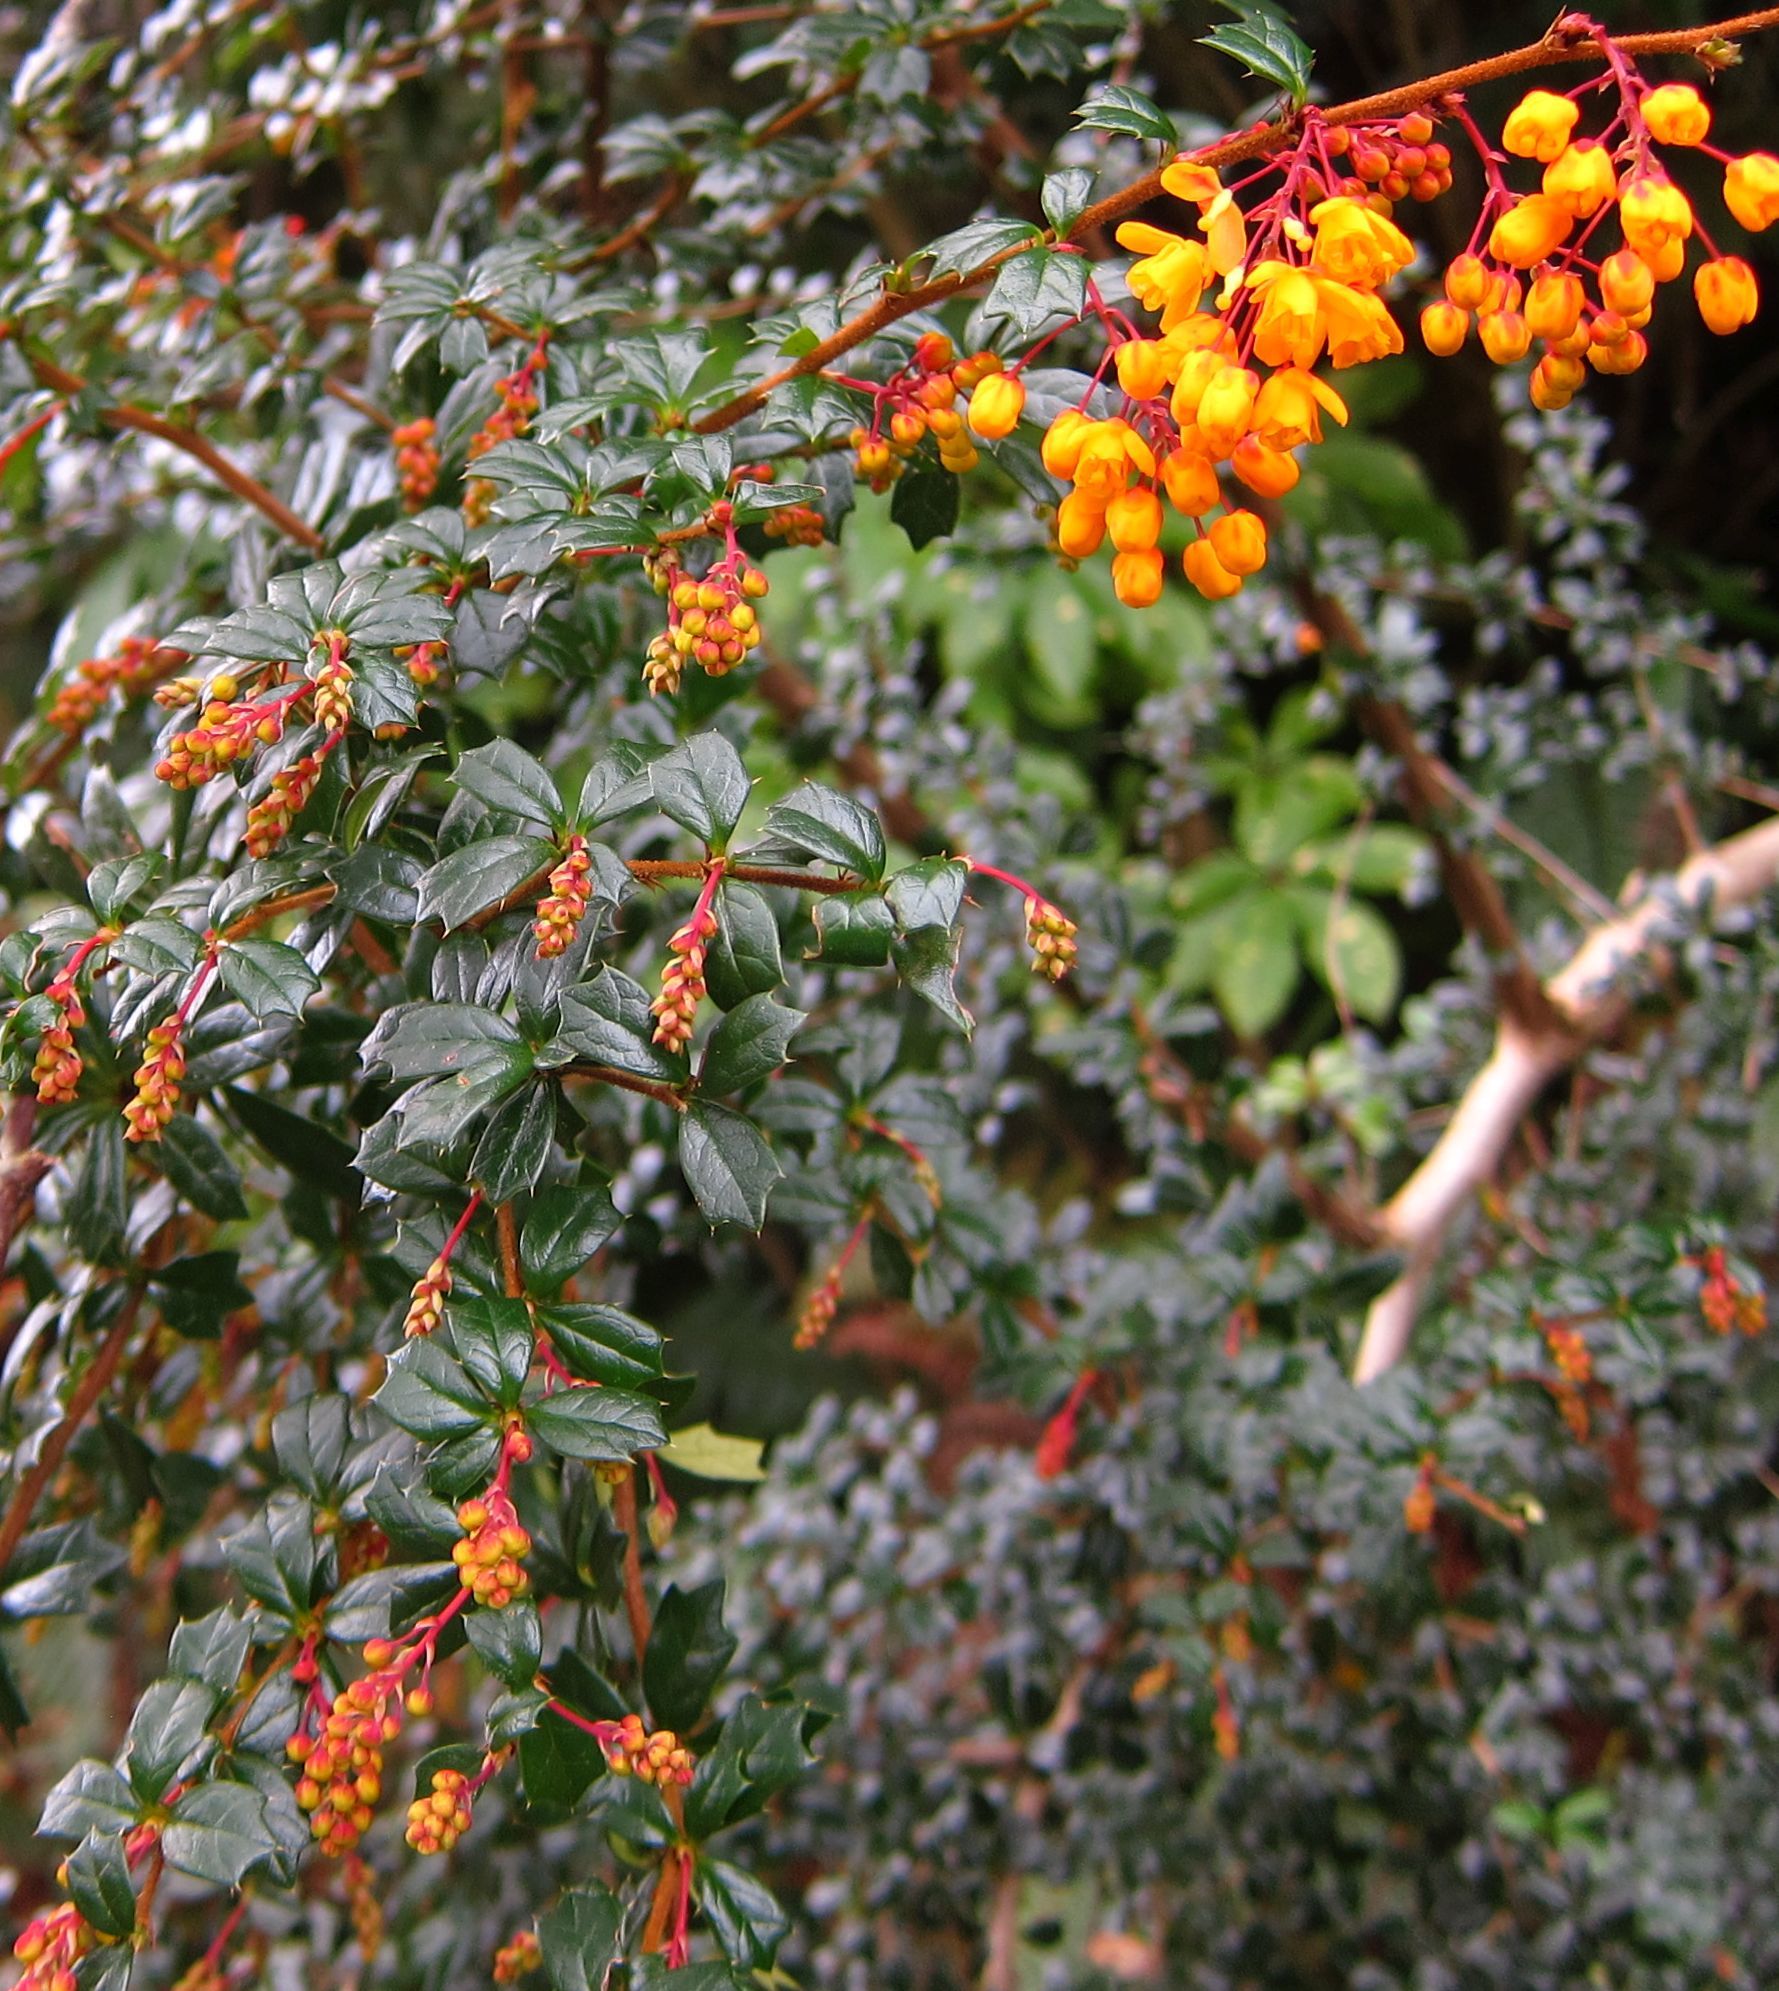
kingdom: Plantae
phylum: Tracheophyta
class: Magnoliopsida
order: Ranunculales
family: Berberidaceae
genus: Berberis
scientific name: Berberis darwinii
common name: Darwin's barberry
